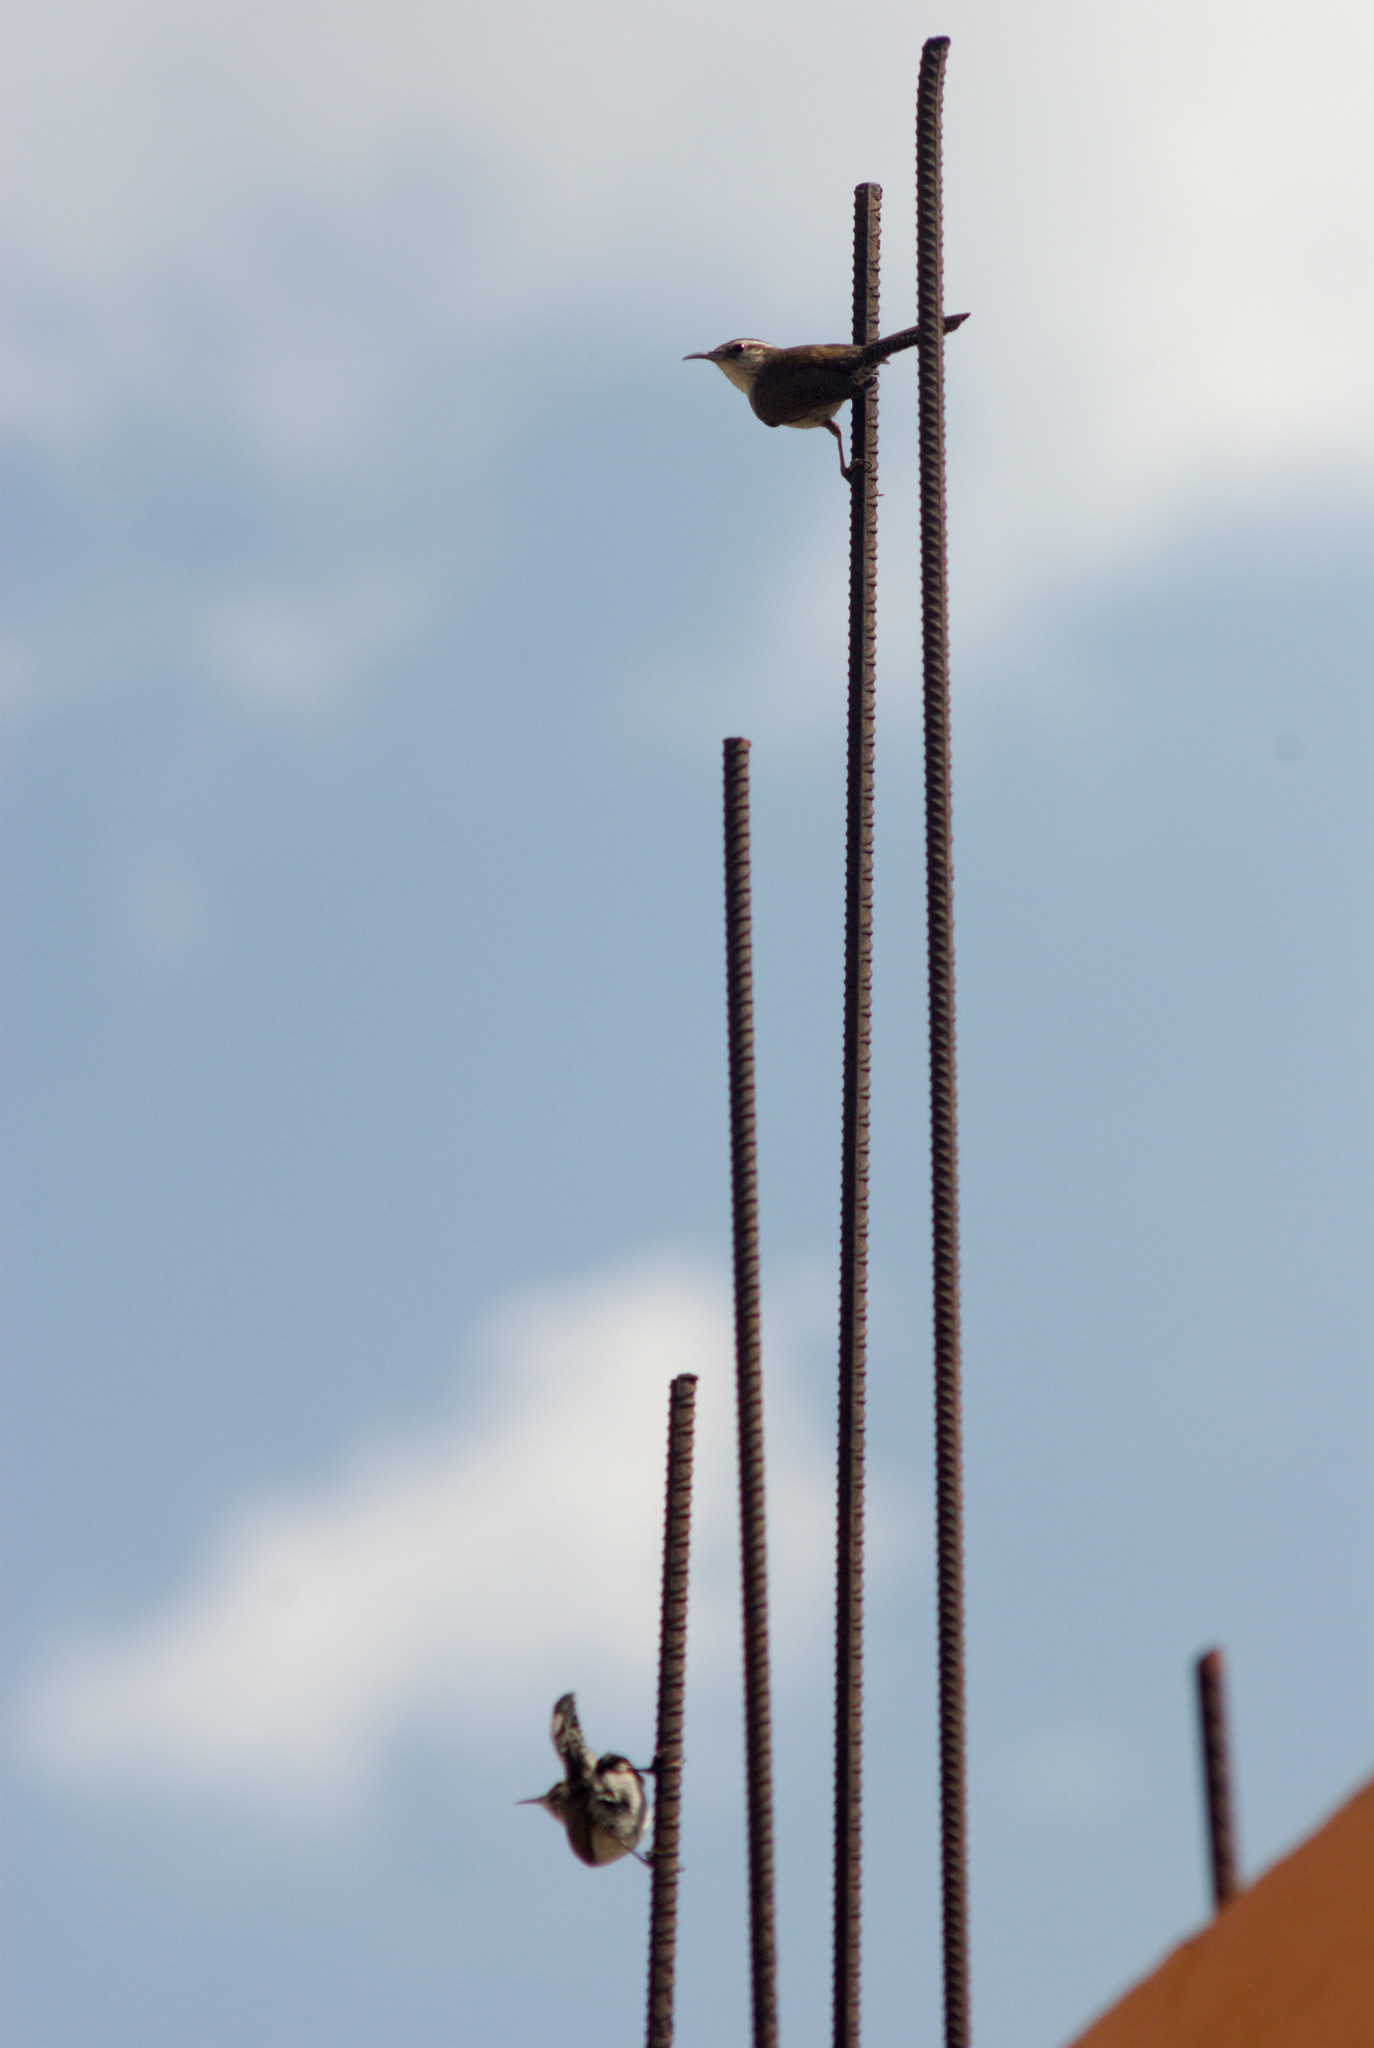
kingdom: Animalia
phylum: Chordata
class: Aves
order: Passeriformes
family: Troglodytidae
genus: Thryomanes
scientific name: Thryomanes bewickii
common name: Bewick's wren
